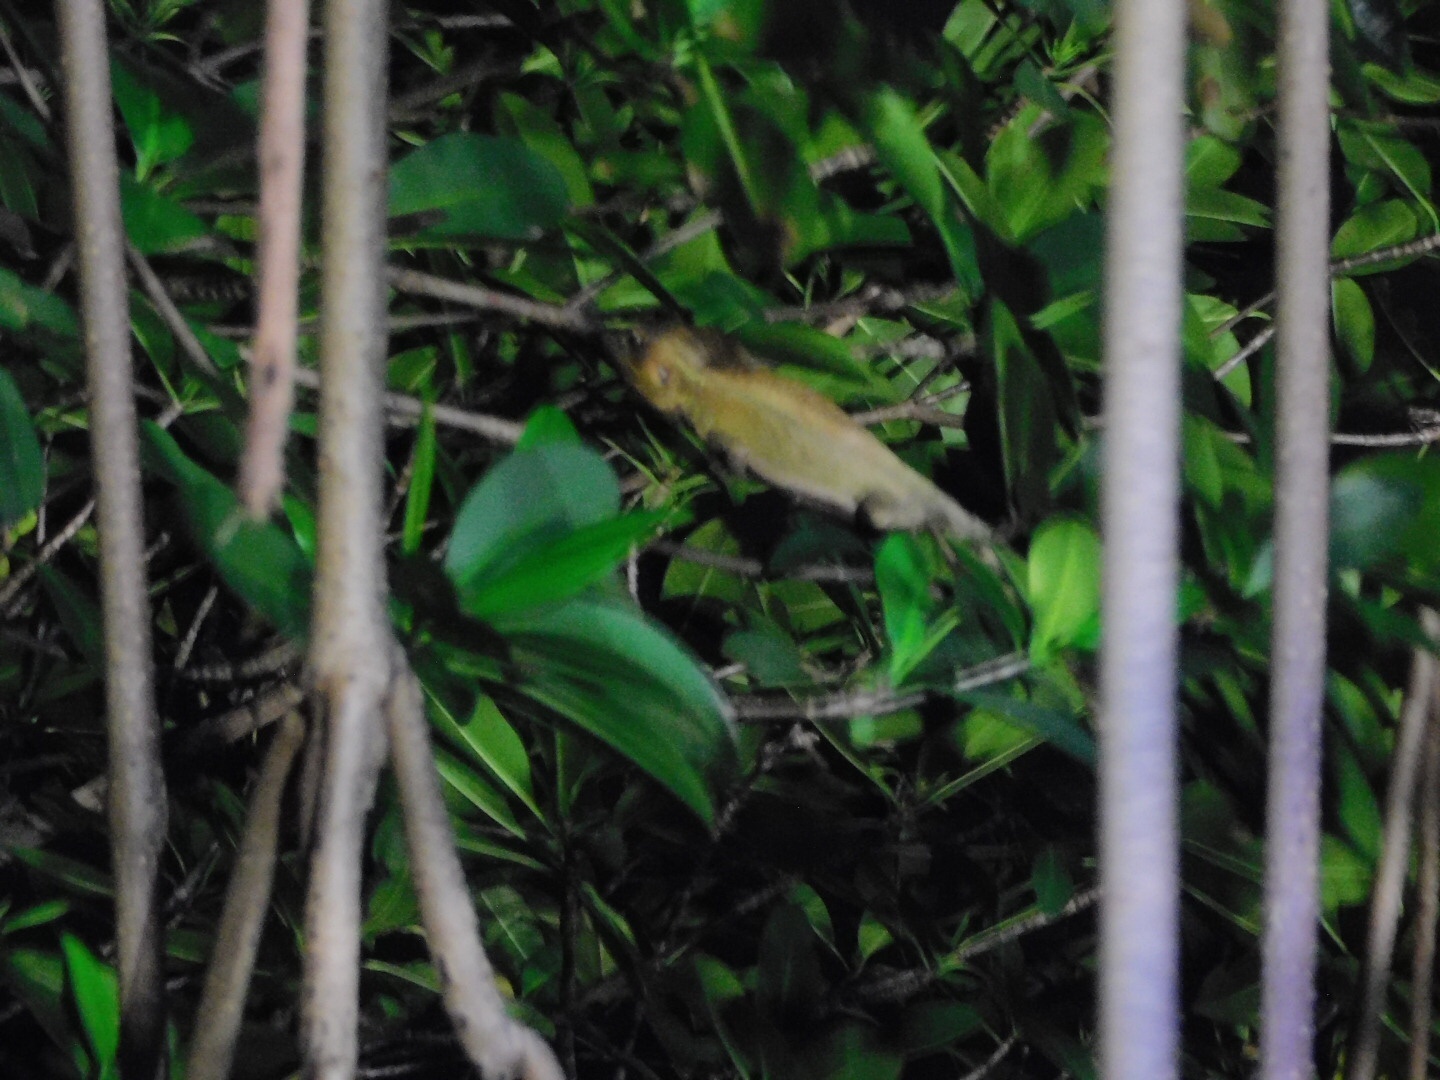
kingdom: Animalia
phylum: Chordata
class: Squamata
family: Corytophanidae
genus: Basiliscus
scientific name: Basiliscus vittatus
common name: Brown basilisk
